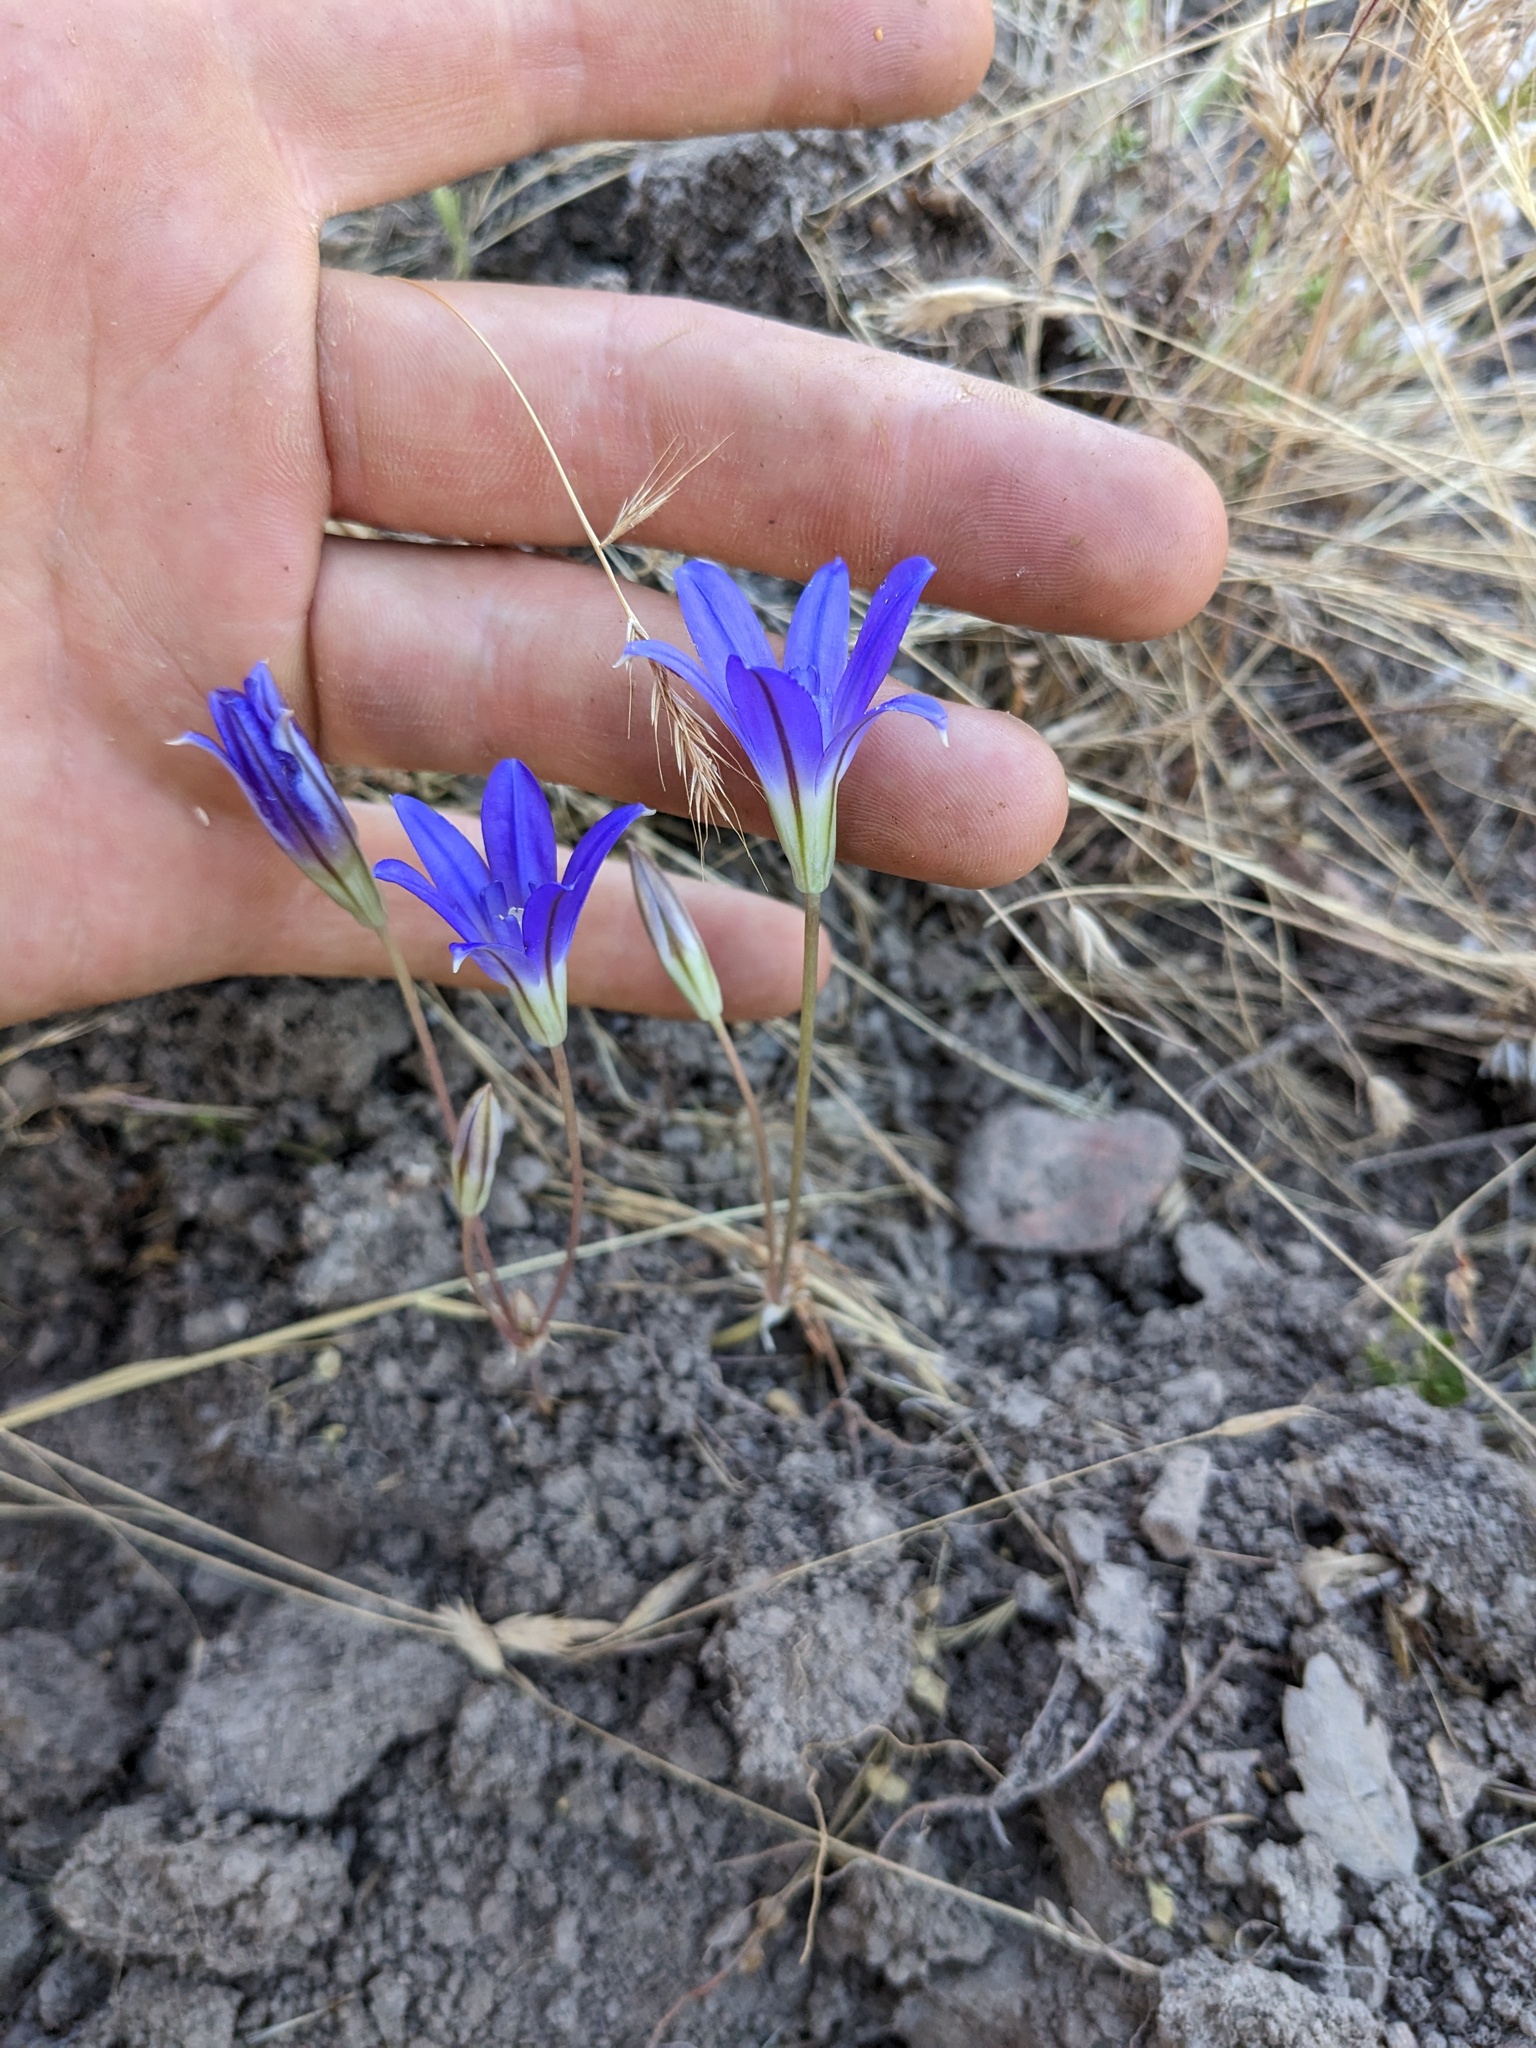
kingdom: Plantae
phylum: Tracheophyta
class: Liliopsida
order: Asparagales
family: Asparagaceae
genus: Brodiaea
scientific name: Brodiaea jolonensis
